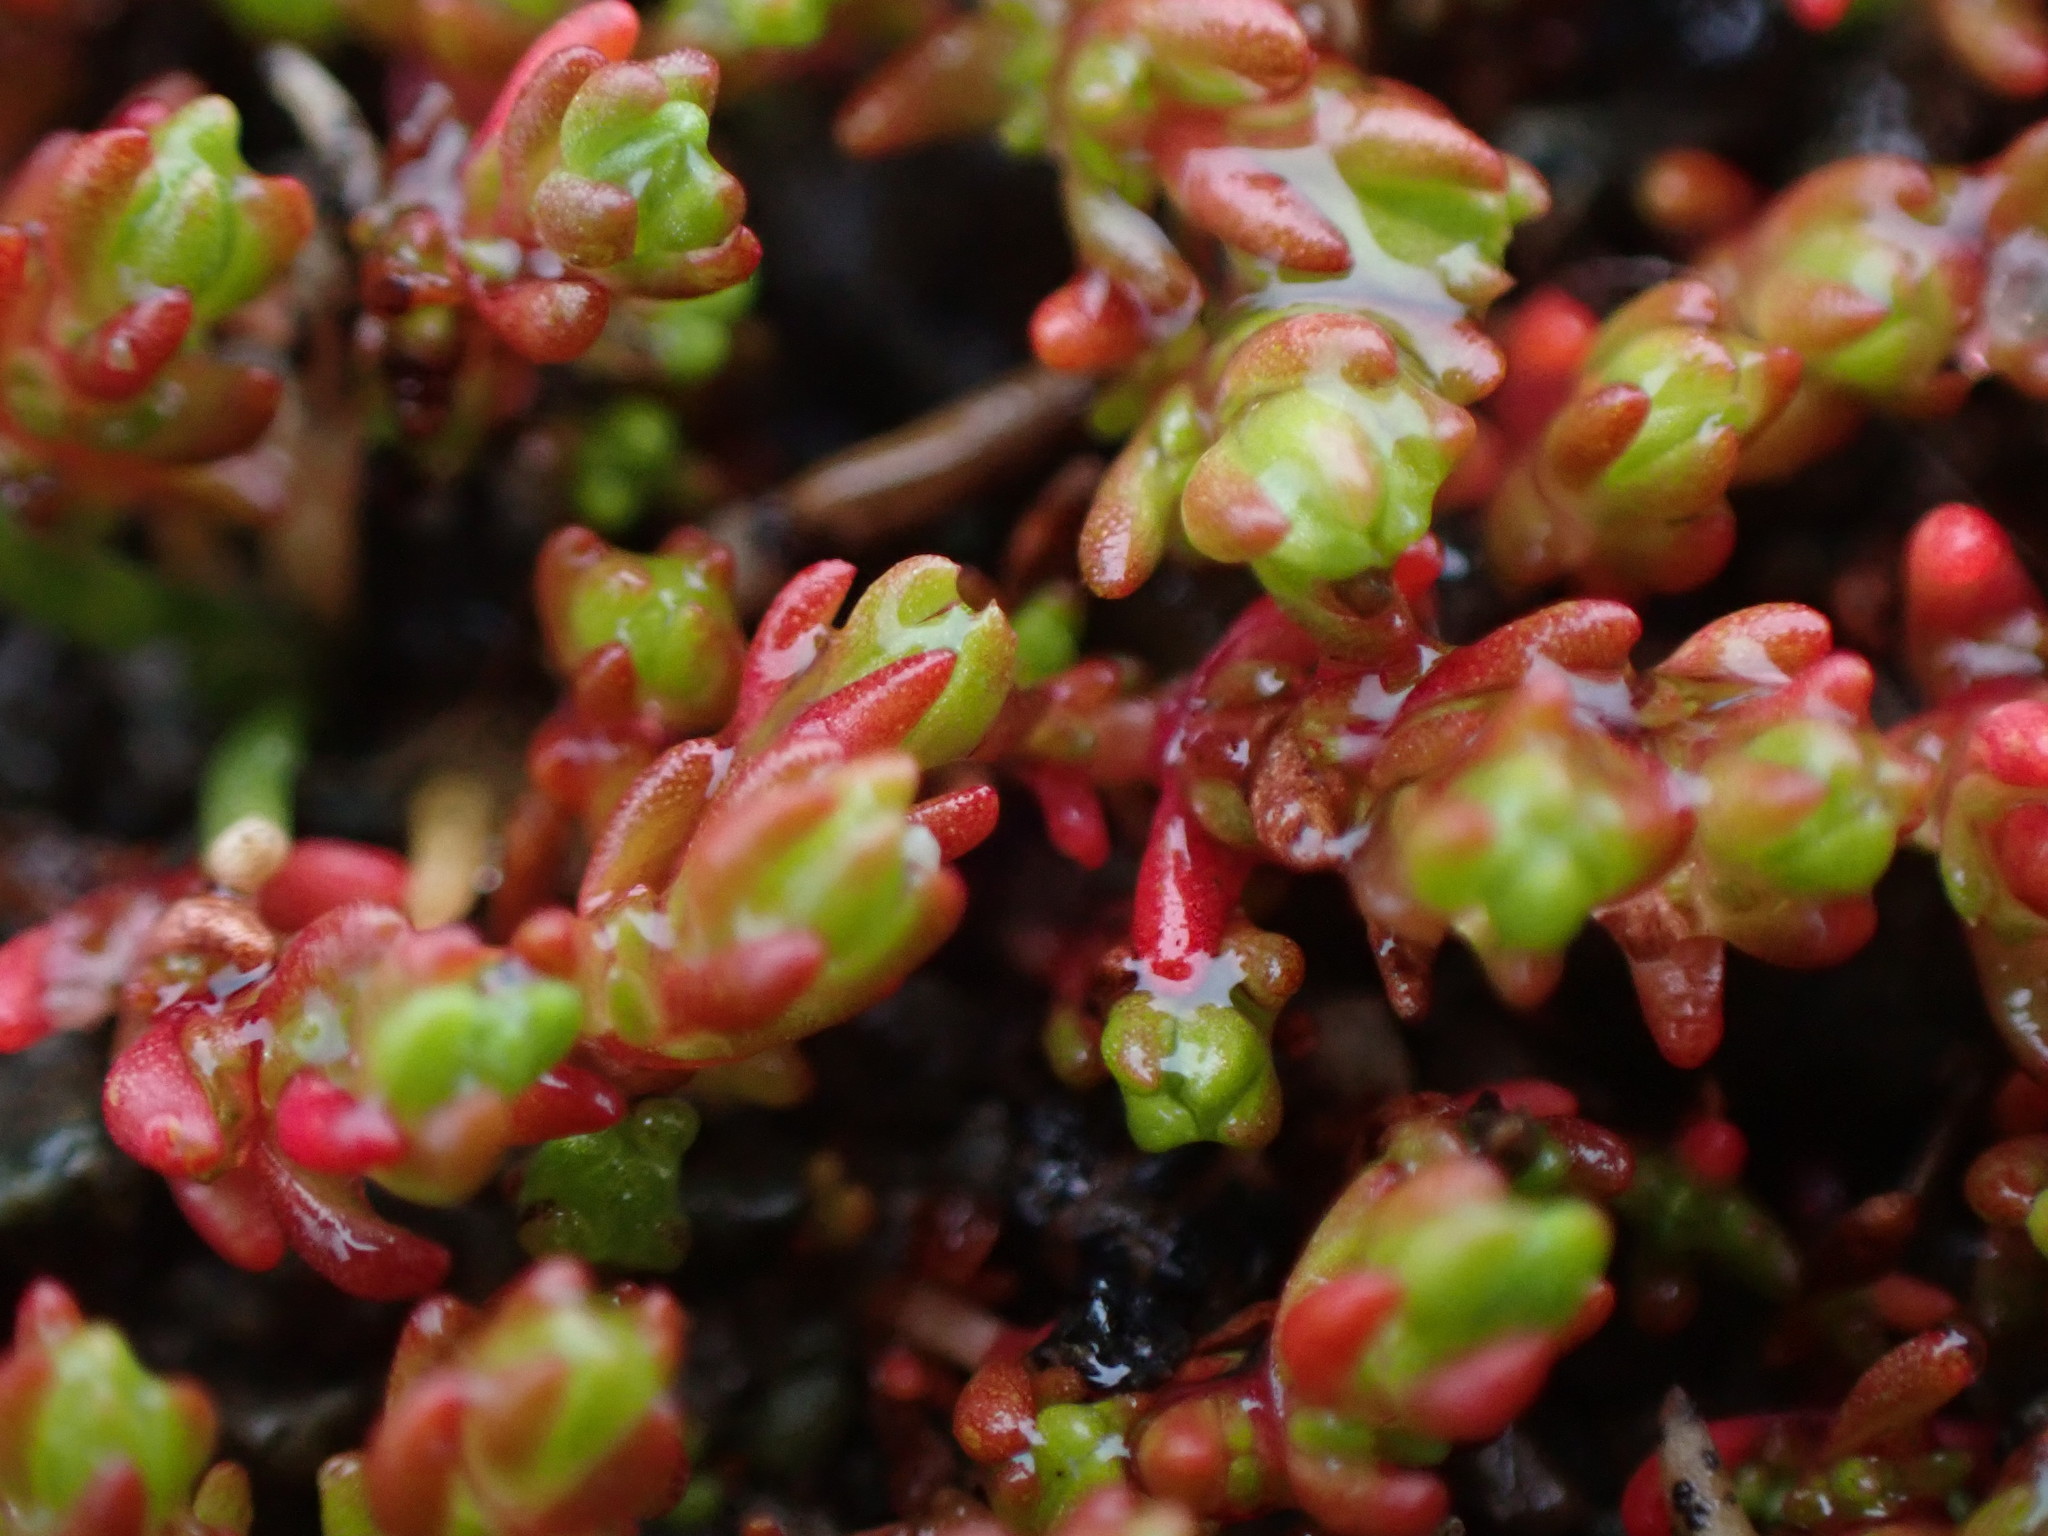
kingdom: Plantae
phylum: Tracheophyta
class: Magnoliopsida
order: Saxifragales
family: Crassulaceae
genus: Crassula
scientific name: Crassula tillaea
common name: Mossy stonecrop
